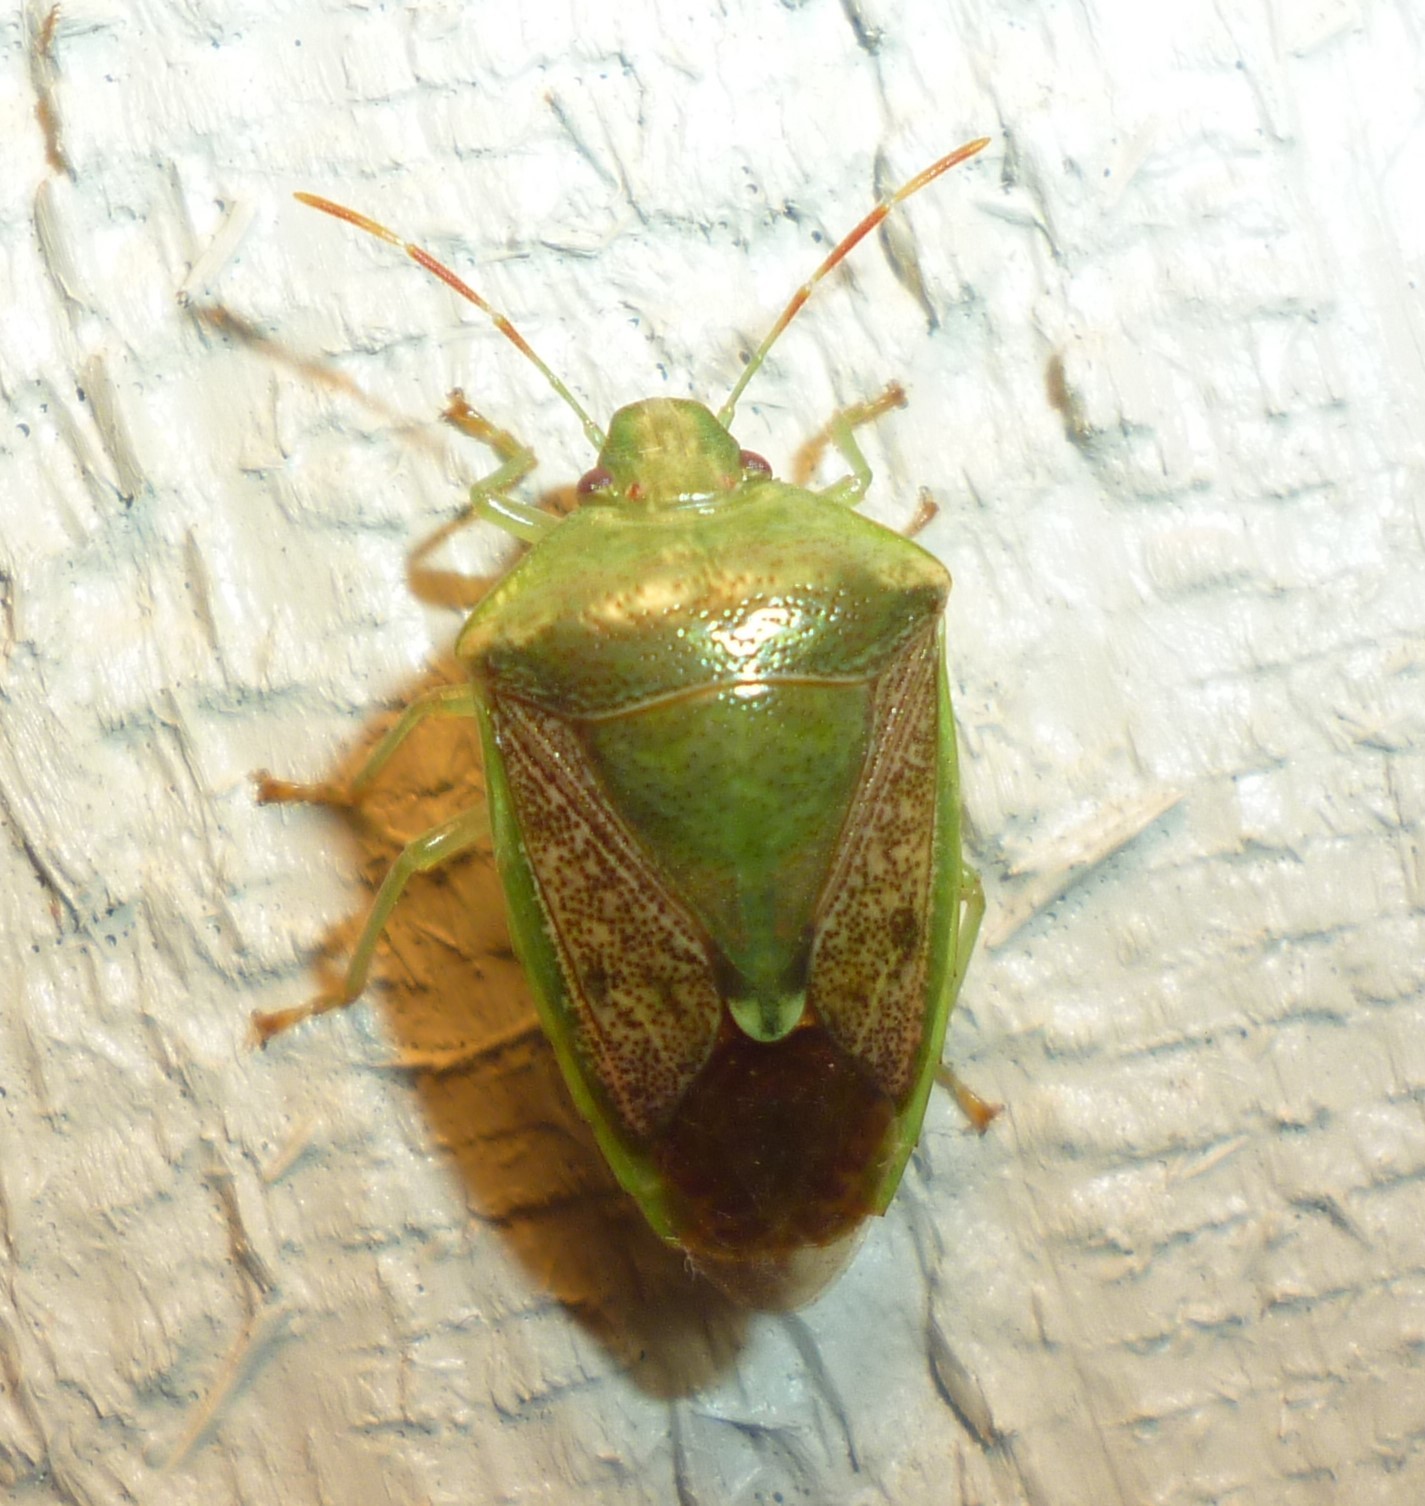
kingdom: Animalia
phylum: Arthropoda
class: Insecta
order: Hemiptera
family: Pentatomidae
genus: Banasa
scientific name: Banasa calva
